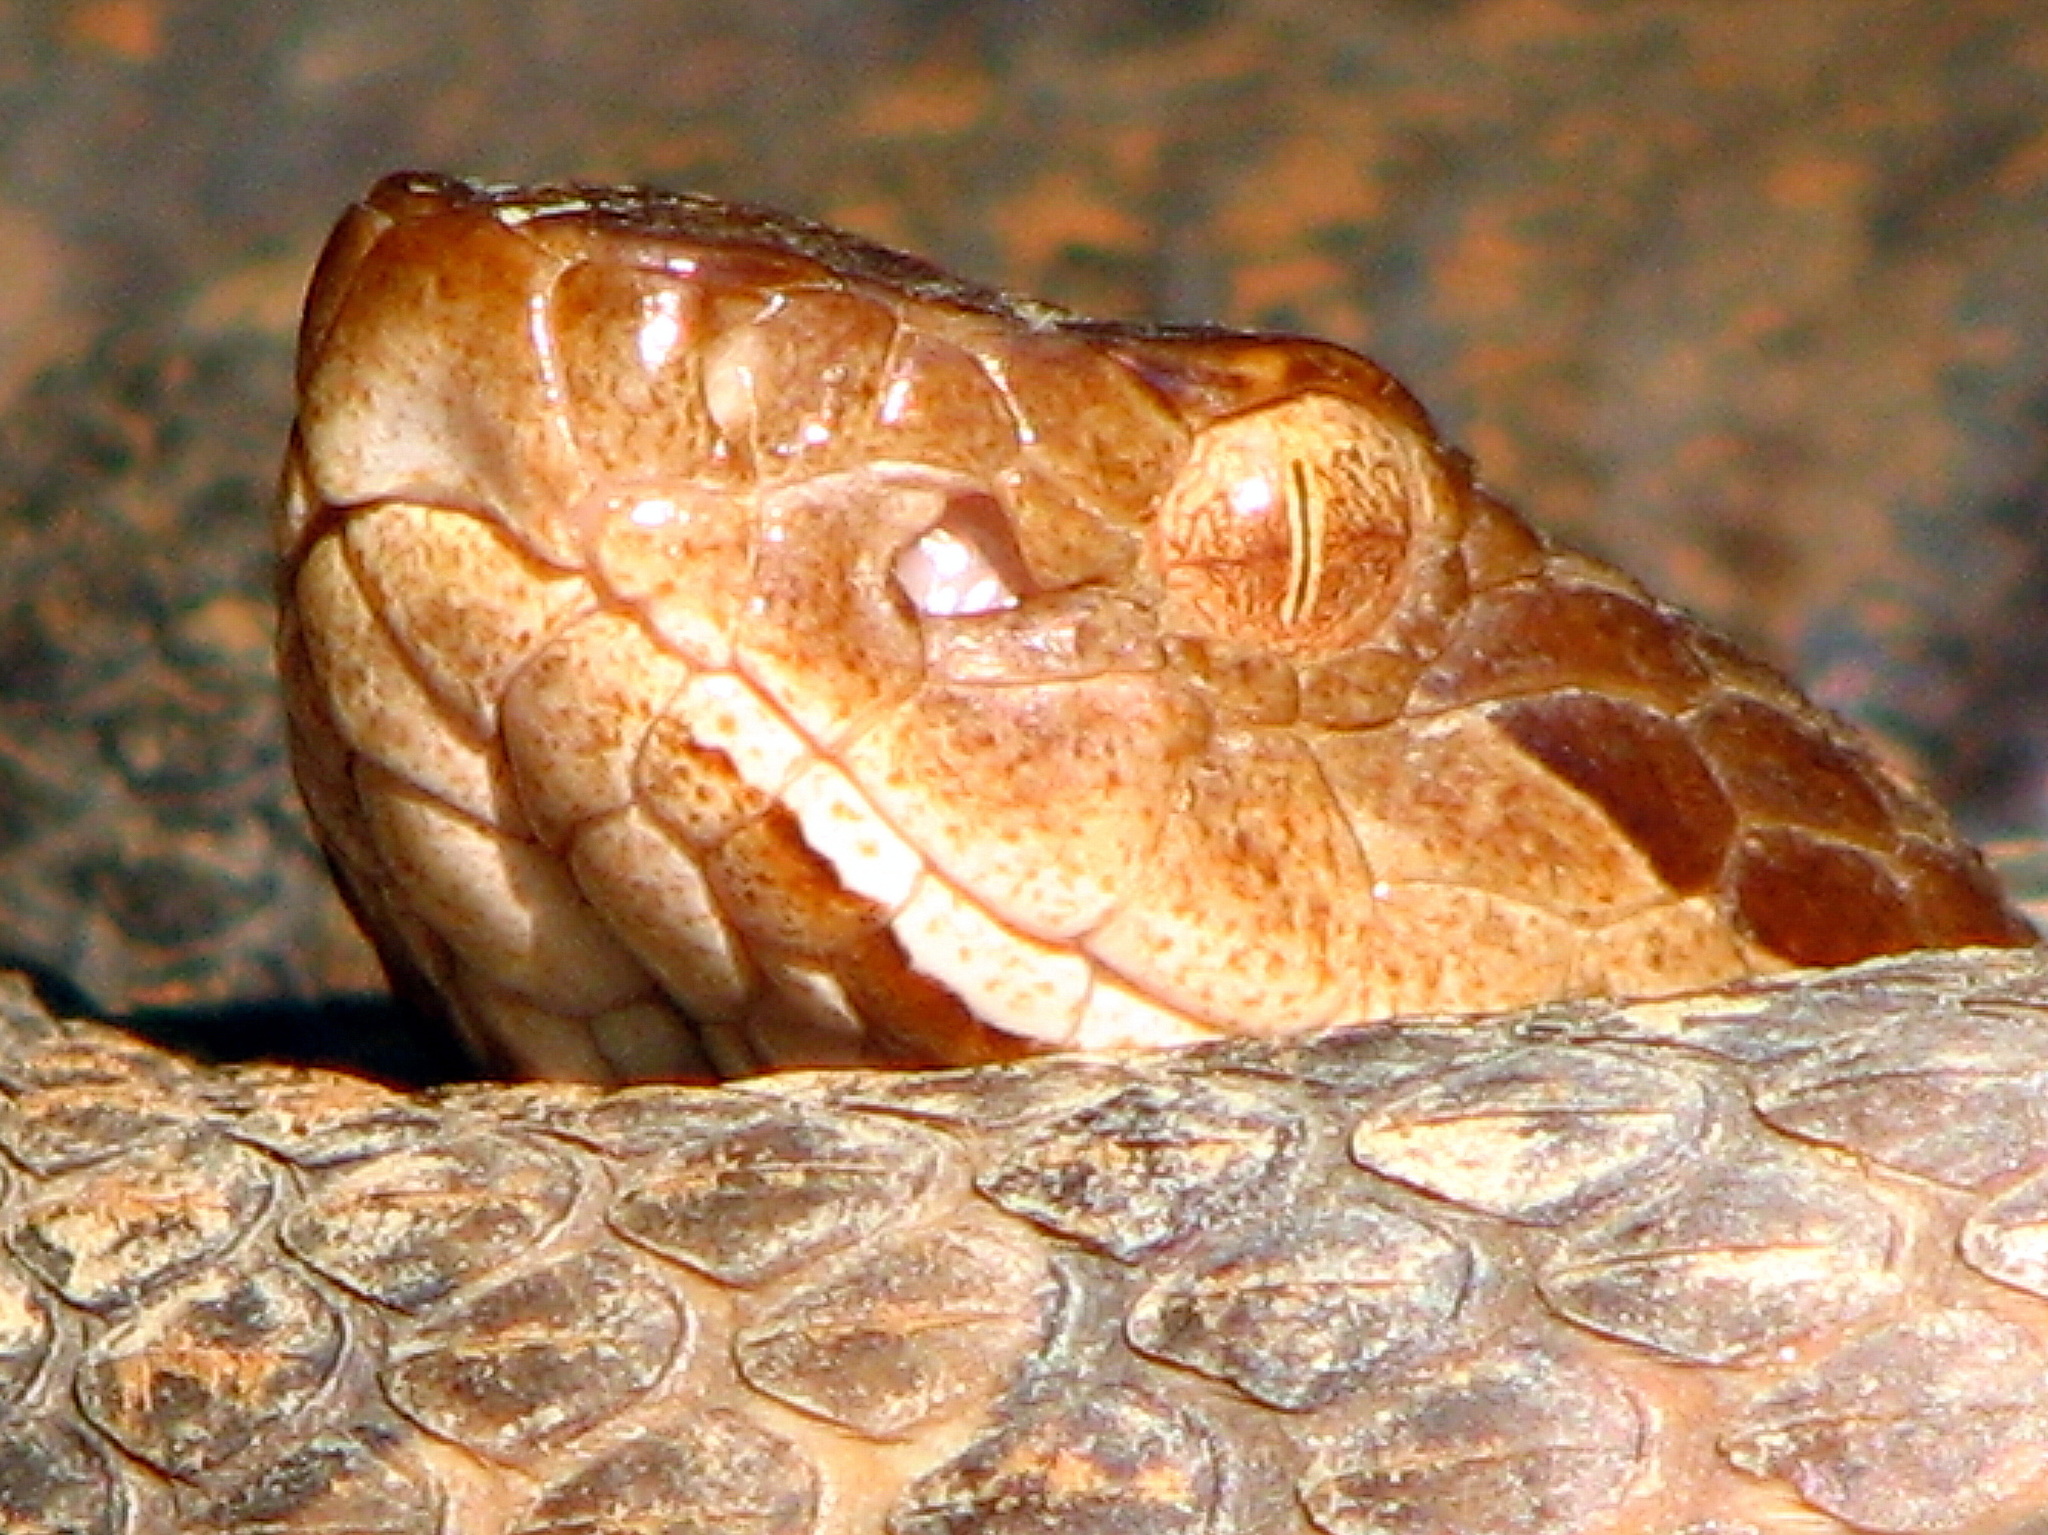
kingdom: Animalia
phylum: Chordata
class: Squamata
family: Viperidae
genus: Agkistrodon
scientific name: Agkistrodon contortrix
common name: Northern copperhead
